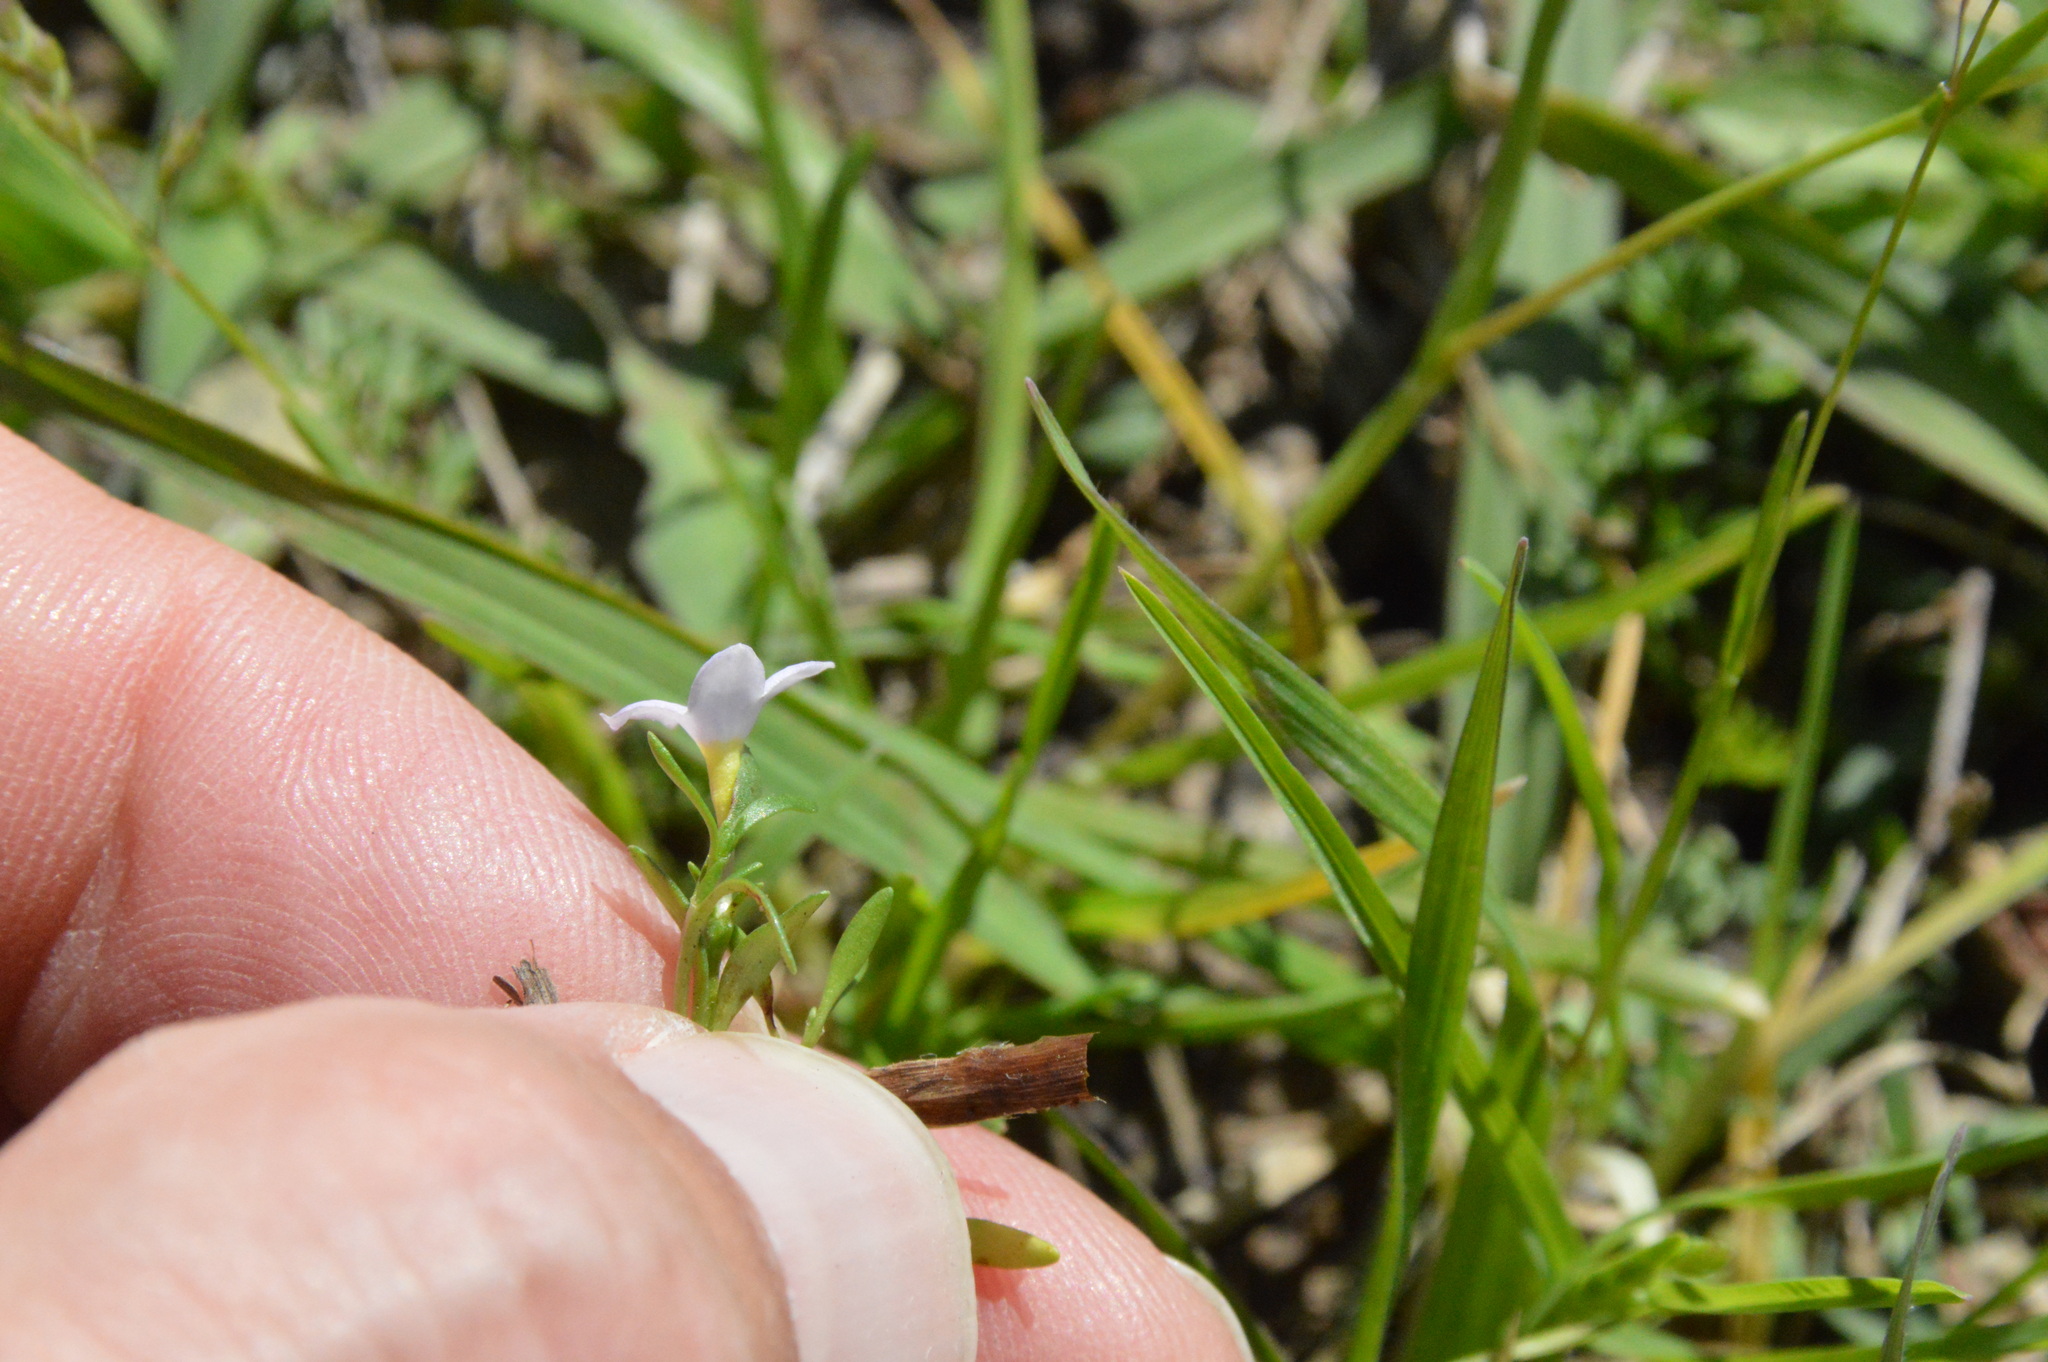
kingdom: Plantae
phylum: Tracheophyta
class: Magnoliopsida
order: Gentianales
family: Rubiaceae
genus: Houstonia
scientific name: Houstonia rosea
